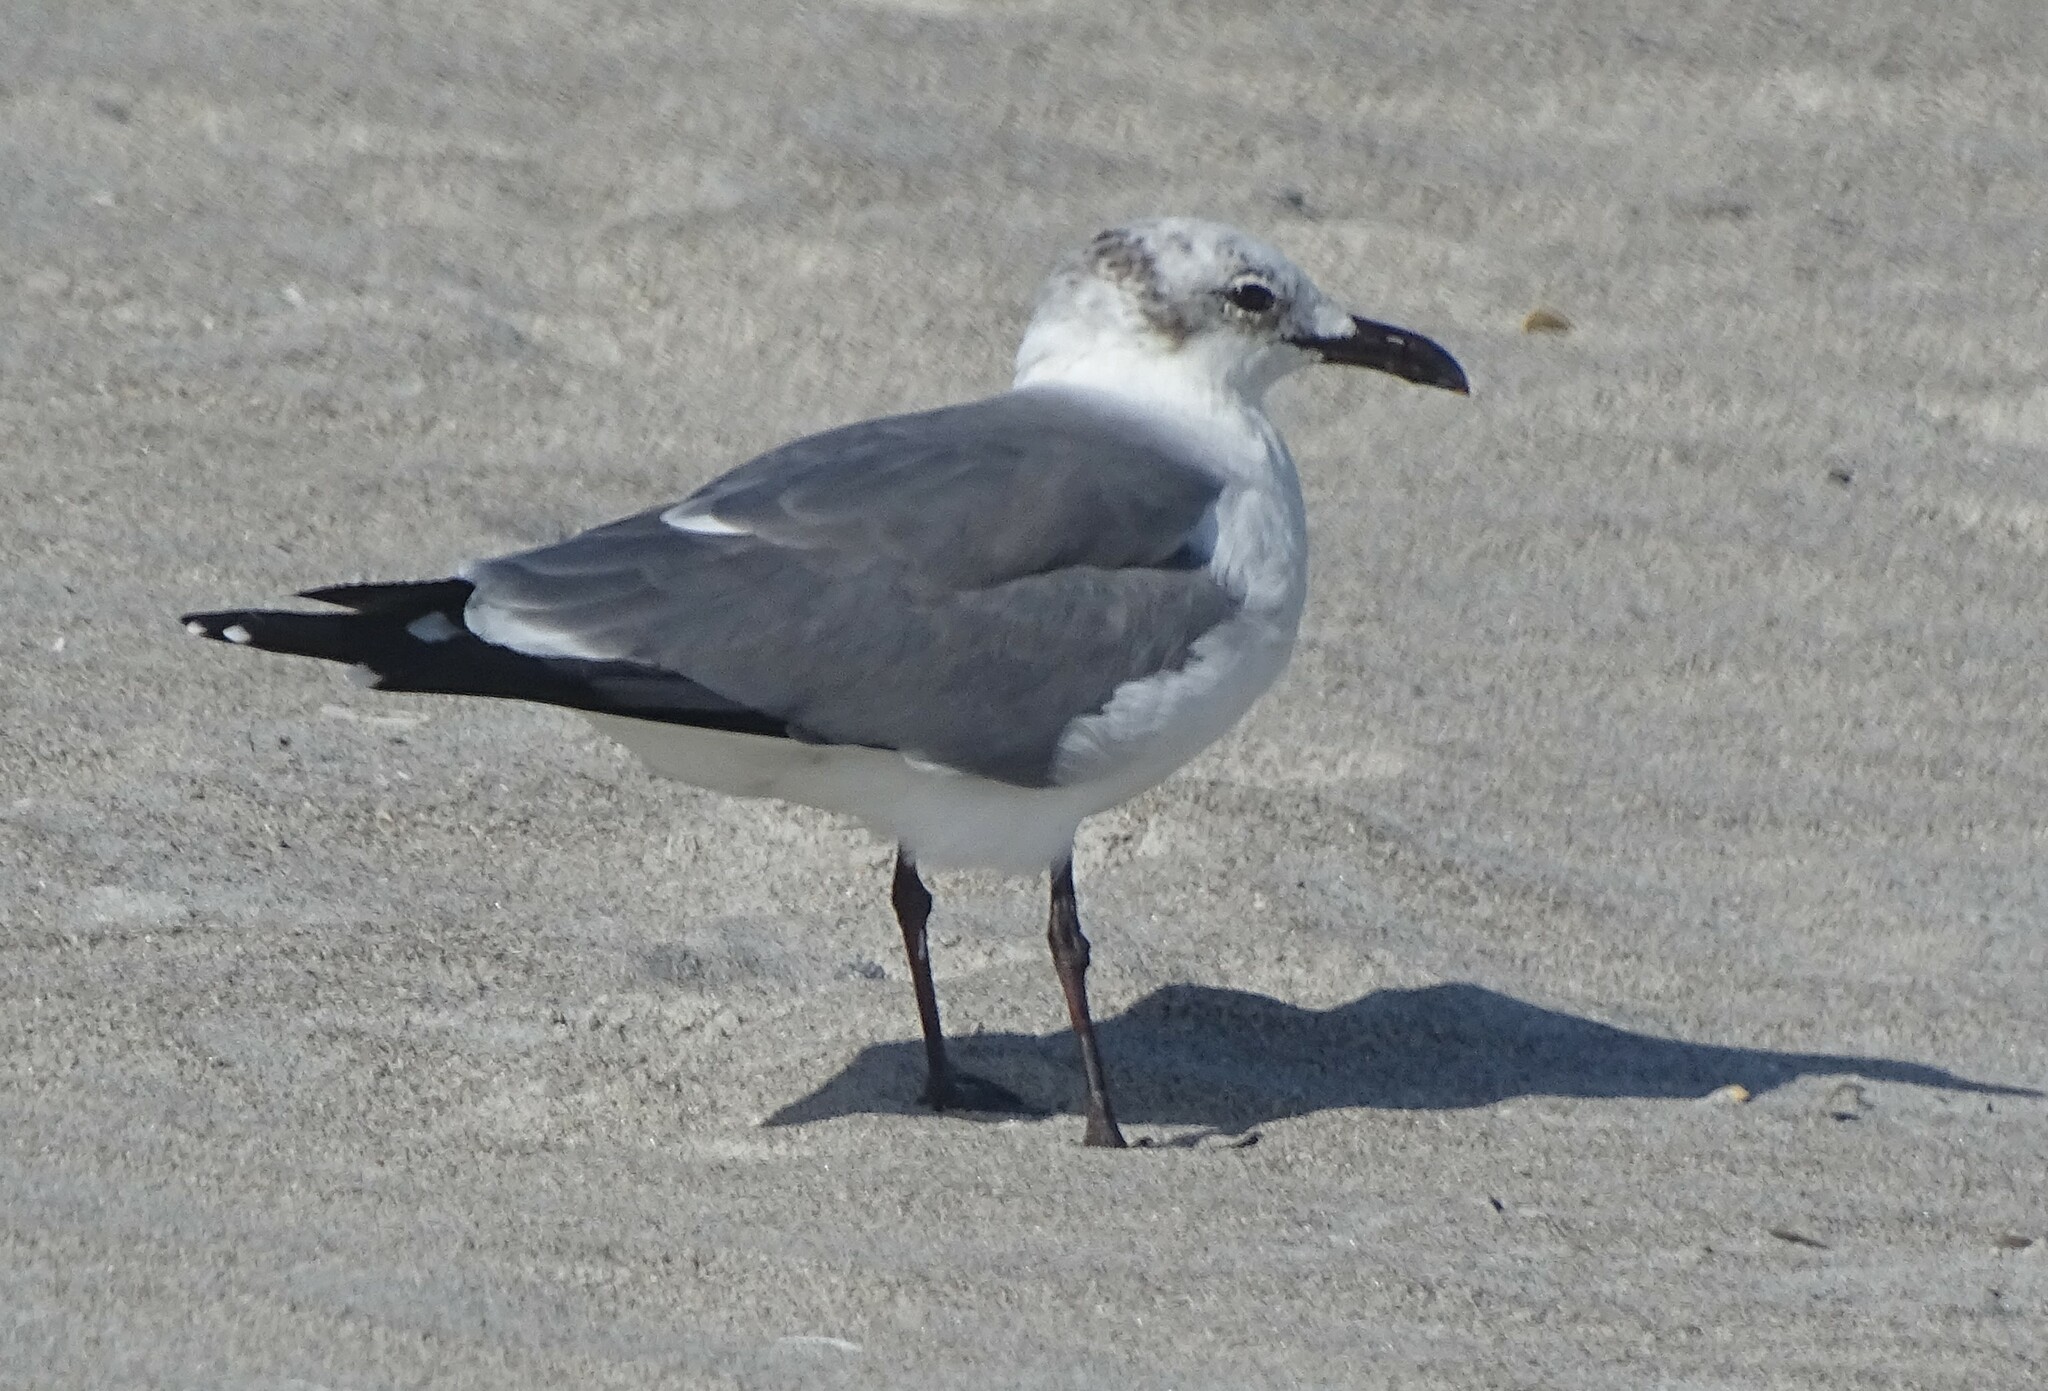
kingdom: Animalia
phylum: Chordata
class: Aves
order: Charadriiformes
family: Laridae
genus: Leucophaeus
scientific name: Leucophaeus atricilla
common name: Laughing gull
